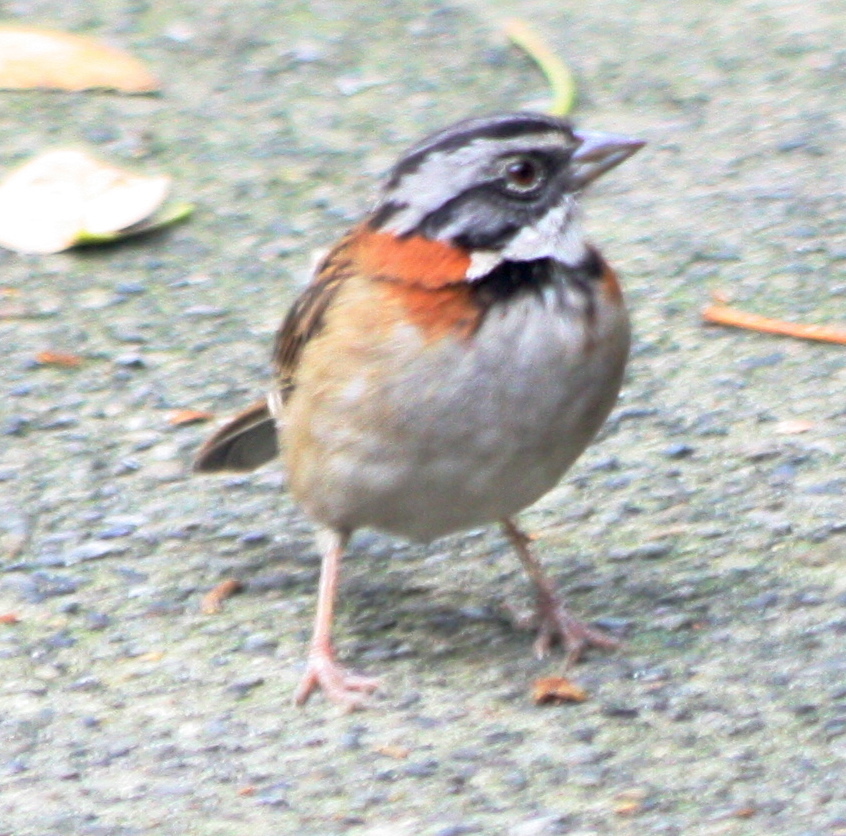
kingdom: Animalia
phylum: Chordata
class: Aves
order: Passeriformes
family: Passerellidae
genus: Zonotrichia
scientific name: Zonotrichia capensis
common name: Rufous-collared sparrow
